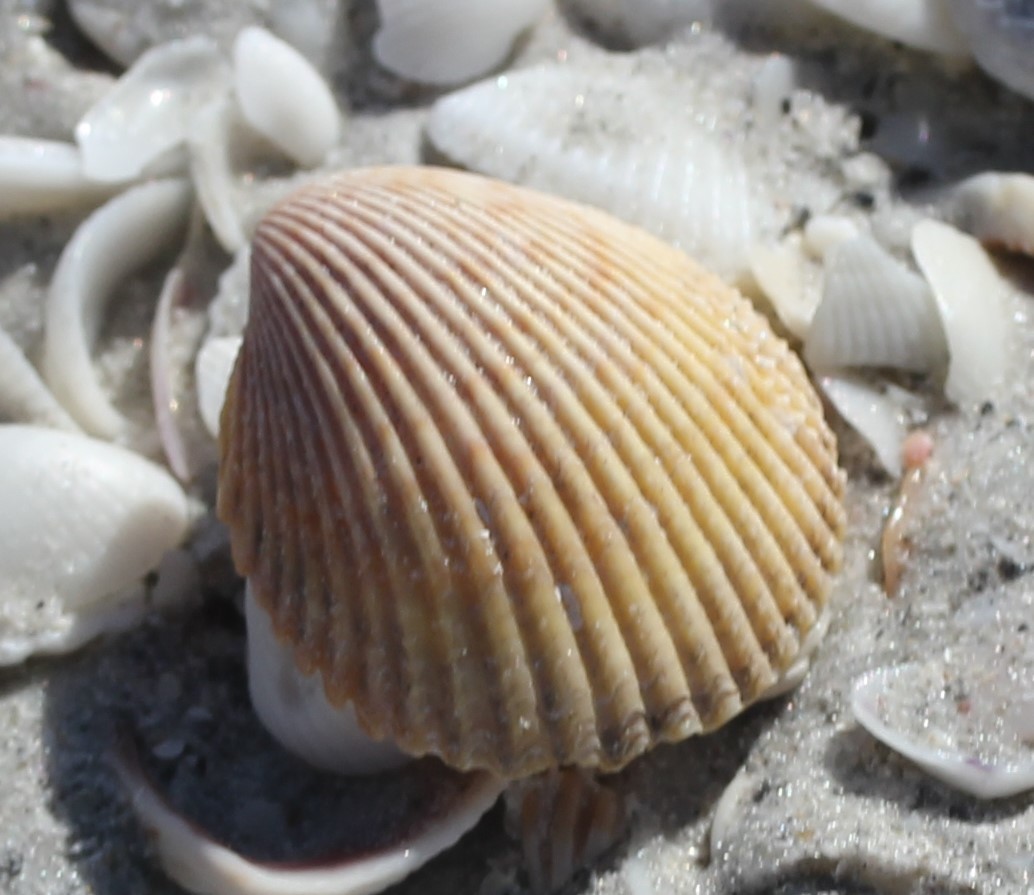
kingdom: Animalia
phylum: Mollusca
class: Bivalvia
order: Cardiida
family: Cardiidae
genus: Dallocardia
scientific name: Dallocardia muricata
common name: Yellow pricklycockle
